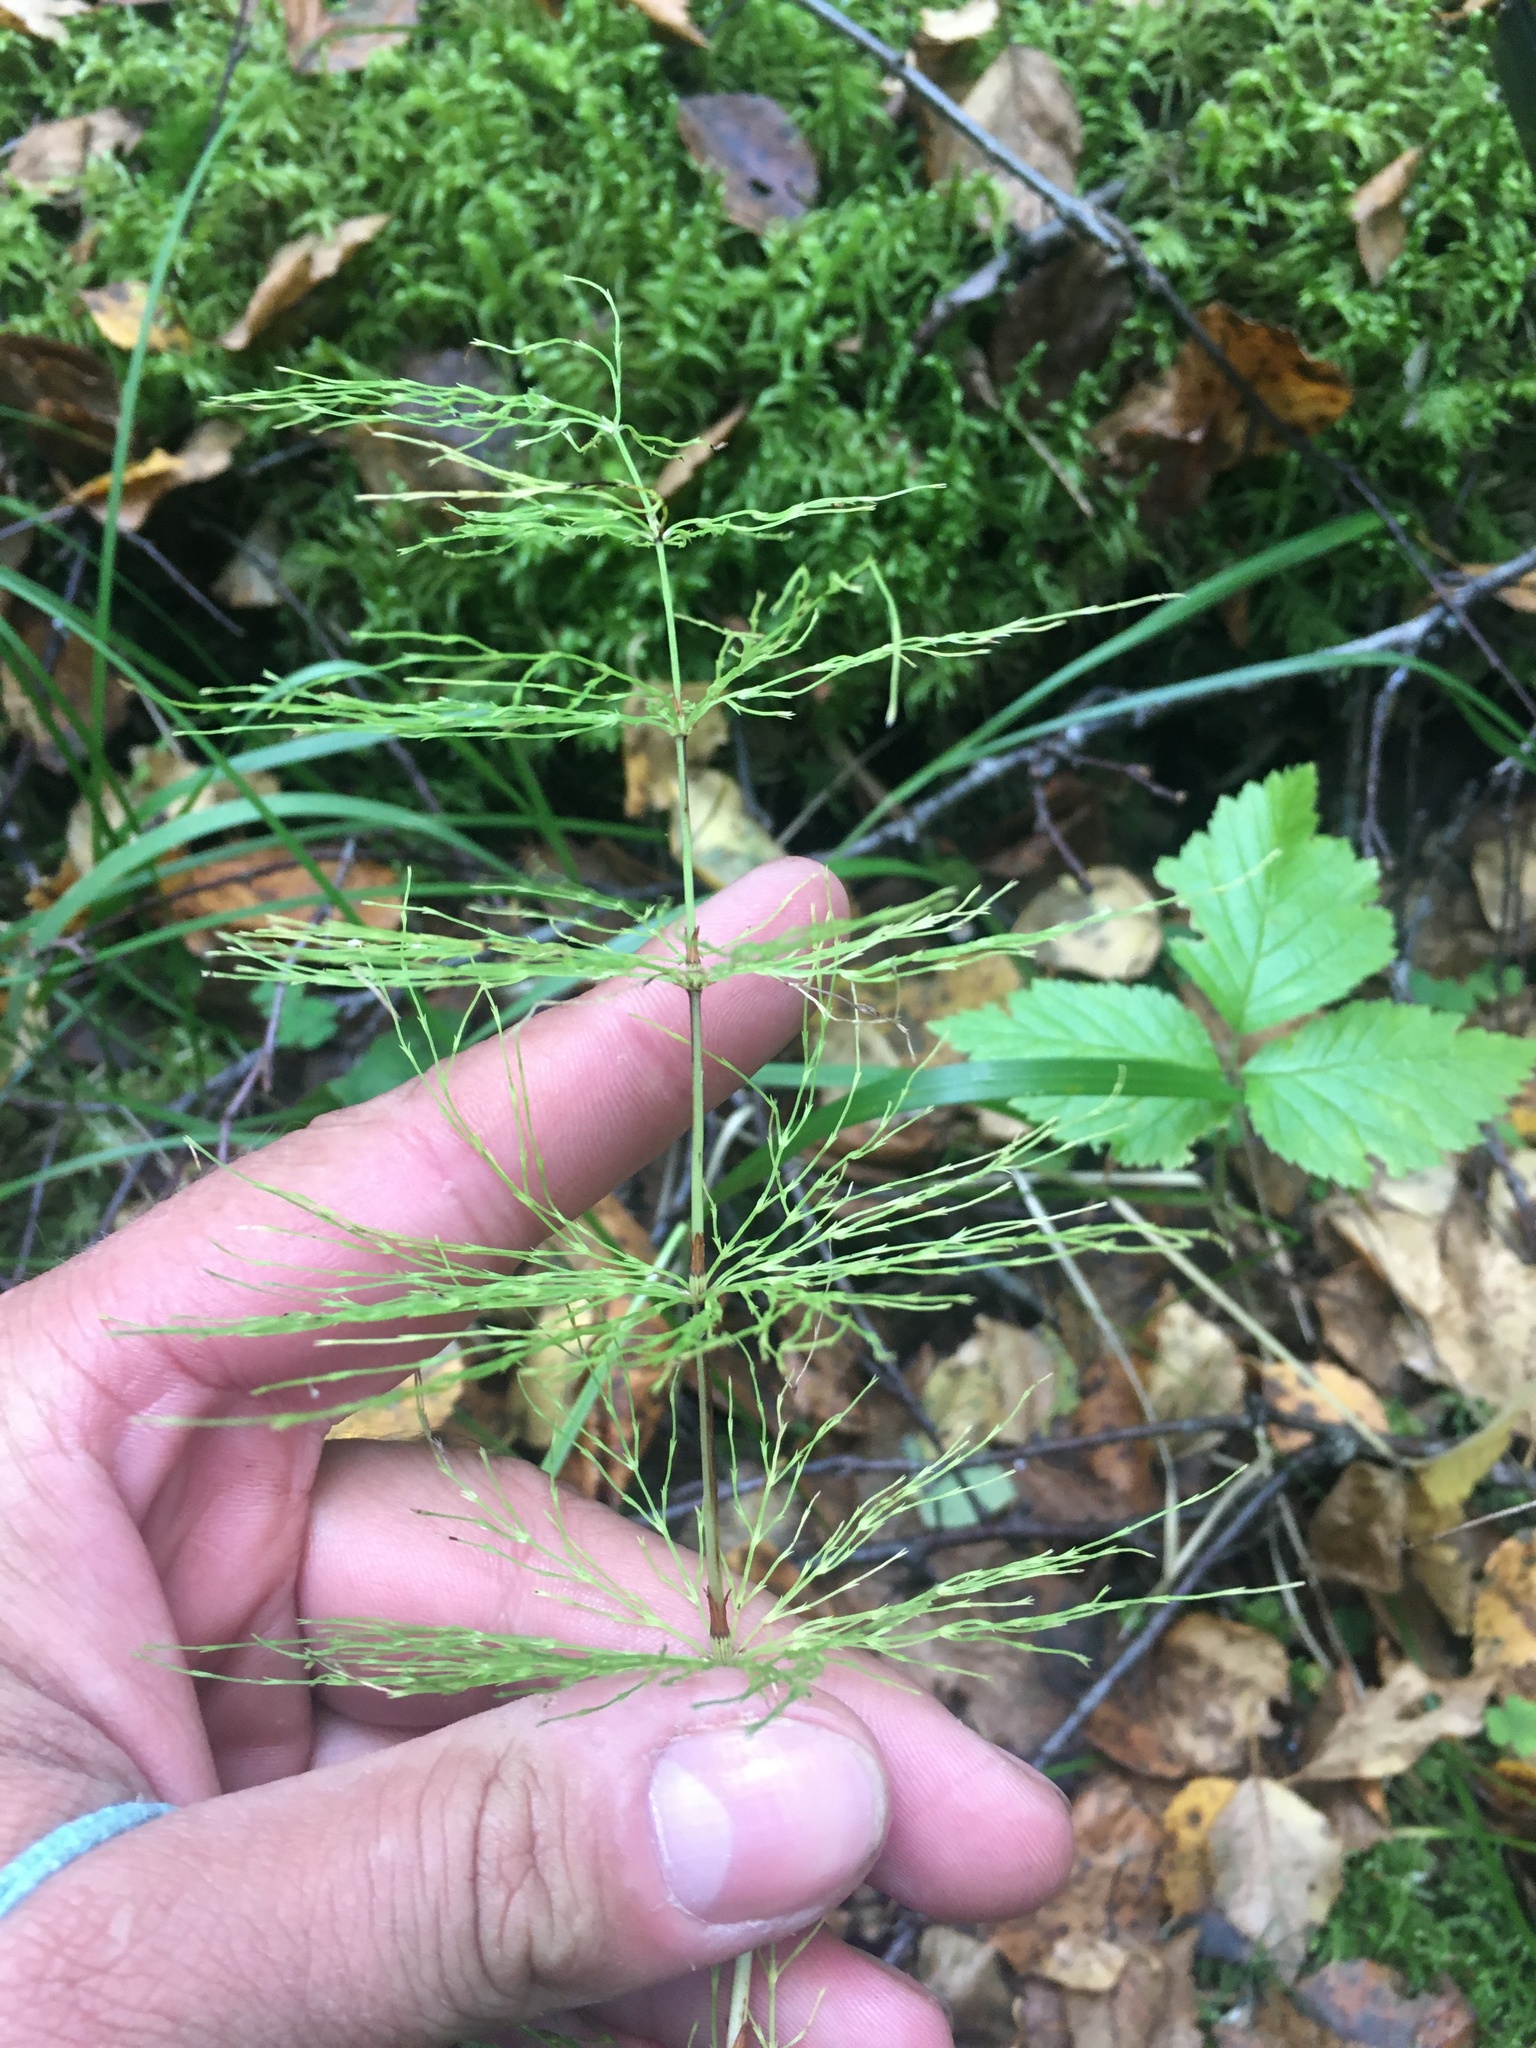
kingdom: Plantae
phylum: Tracheophyta
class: Polypodiopsida
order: Equisetales
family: Equisetaceae
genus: Equisetum
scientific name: Equisetum sylvaticum
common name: Wood horsetail
